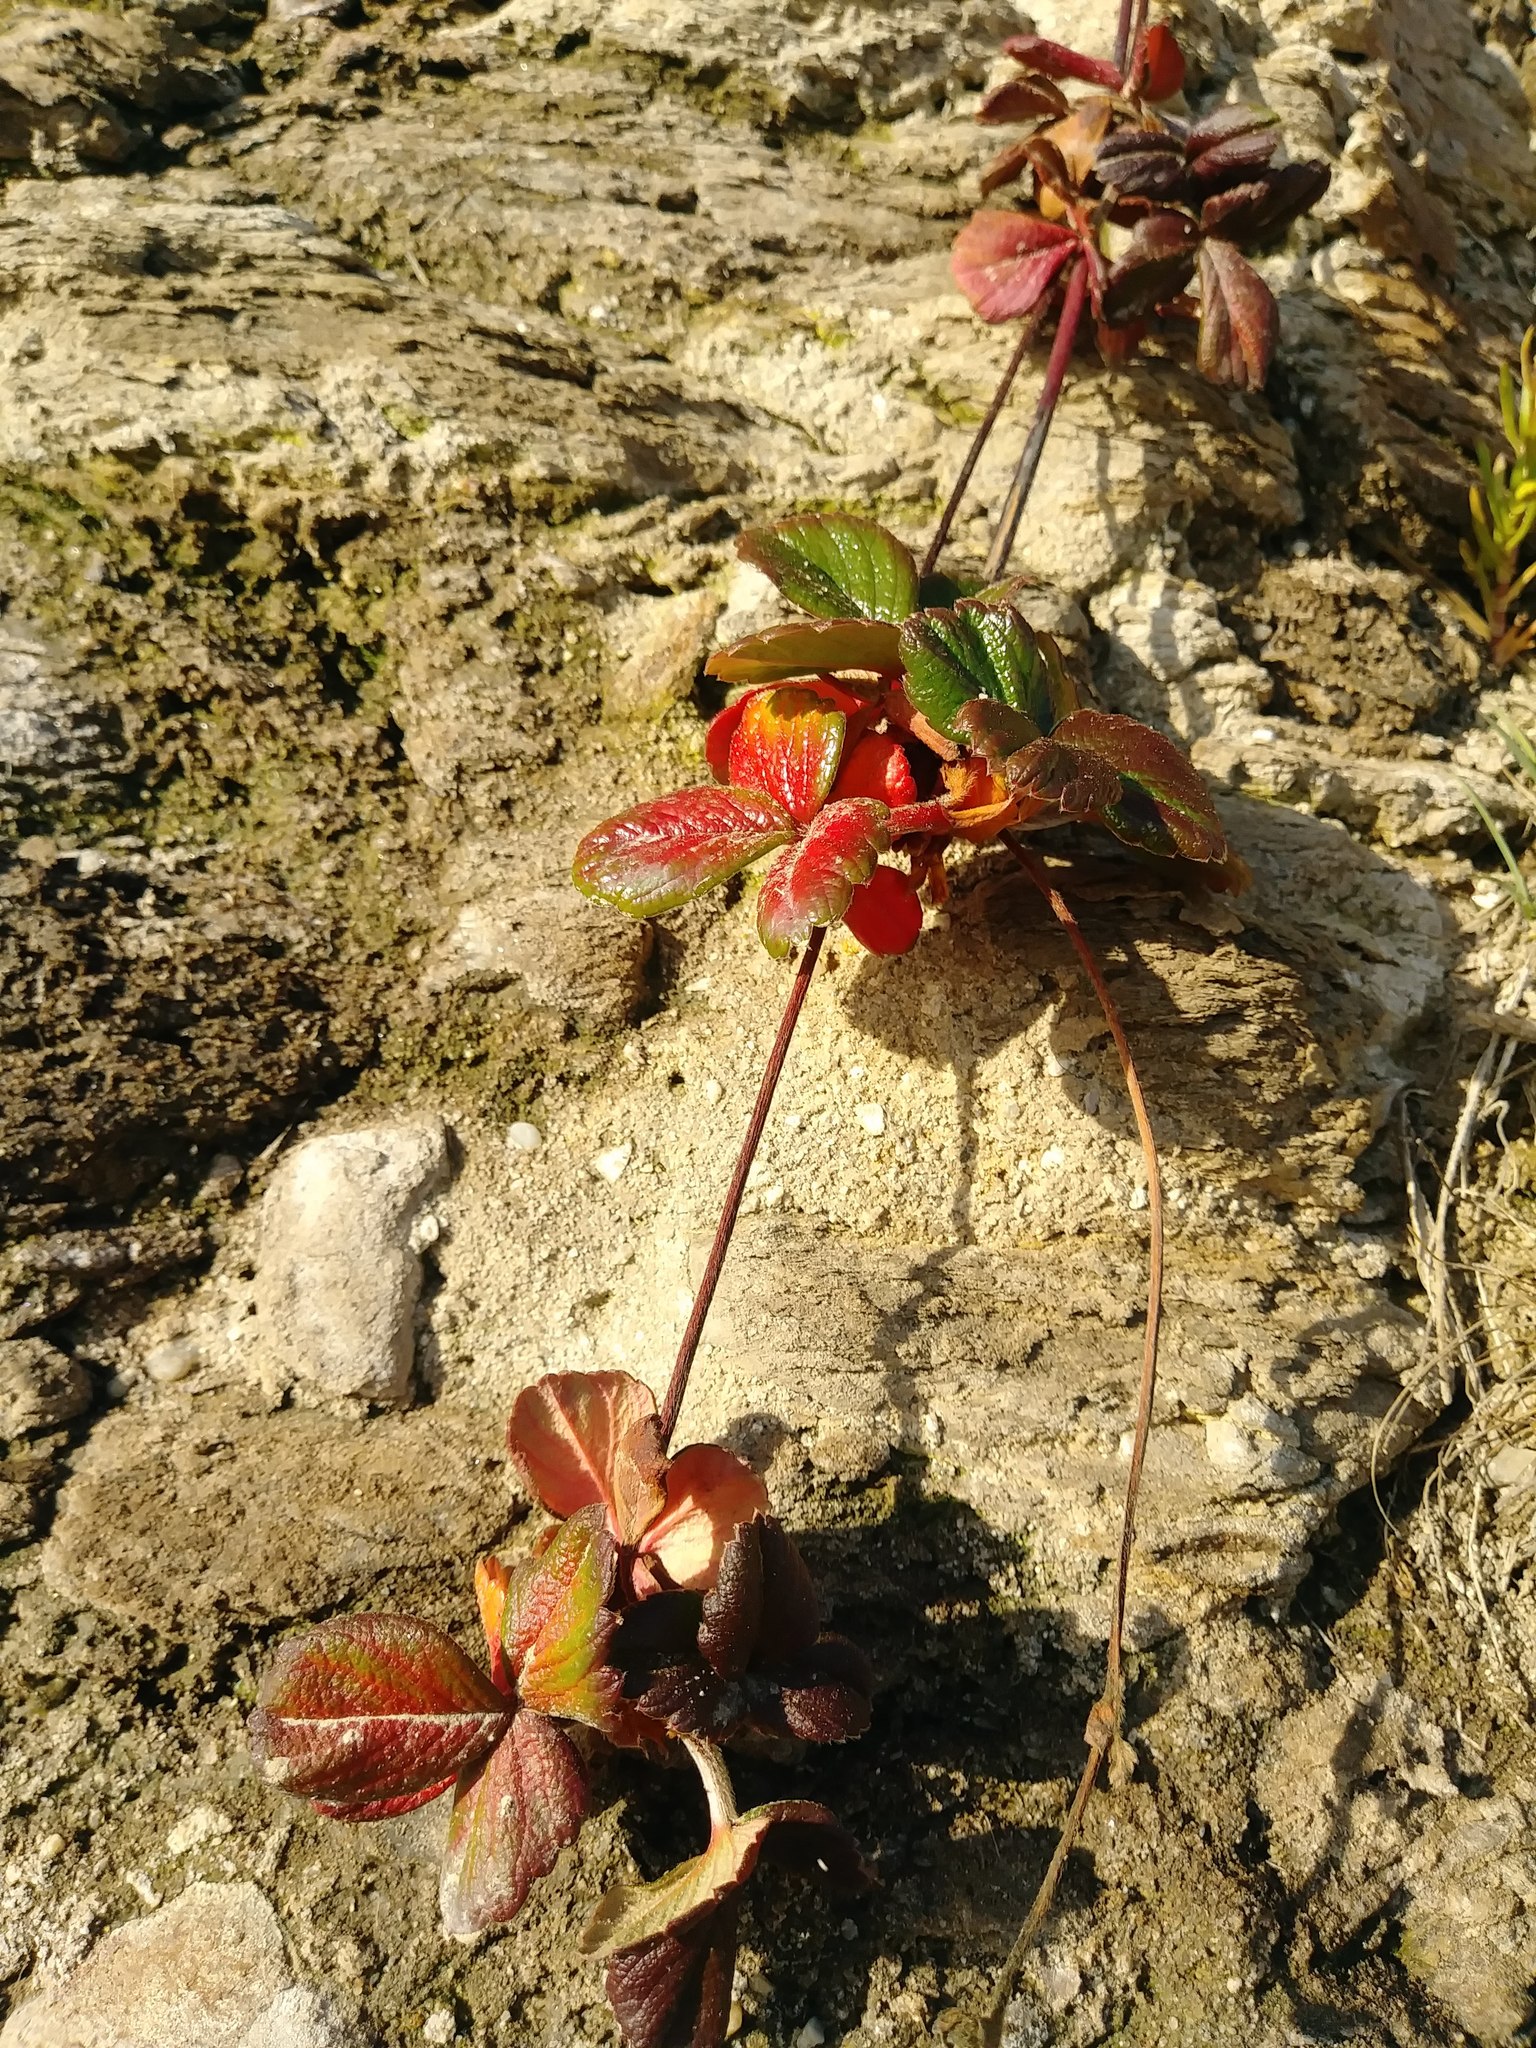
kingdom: Plantae
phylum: Tracheophyta
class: Magnoliopsida
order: Rosales
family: Rosaceae
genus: Fragaria
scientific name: Fragaria chiloensis
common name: Beach strawberry
